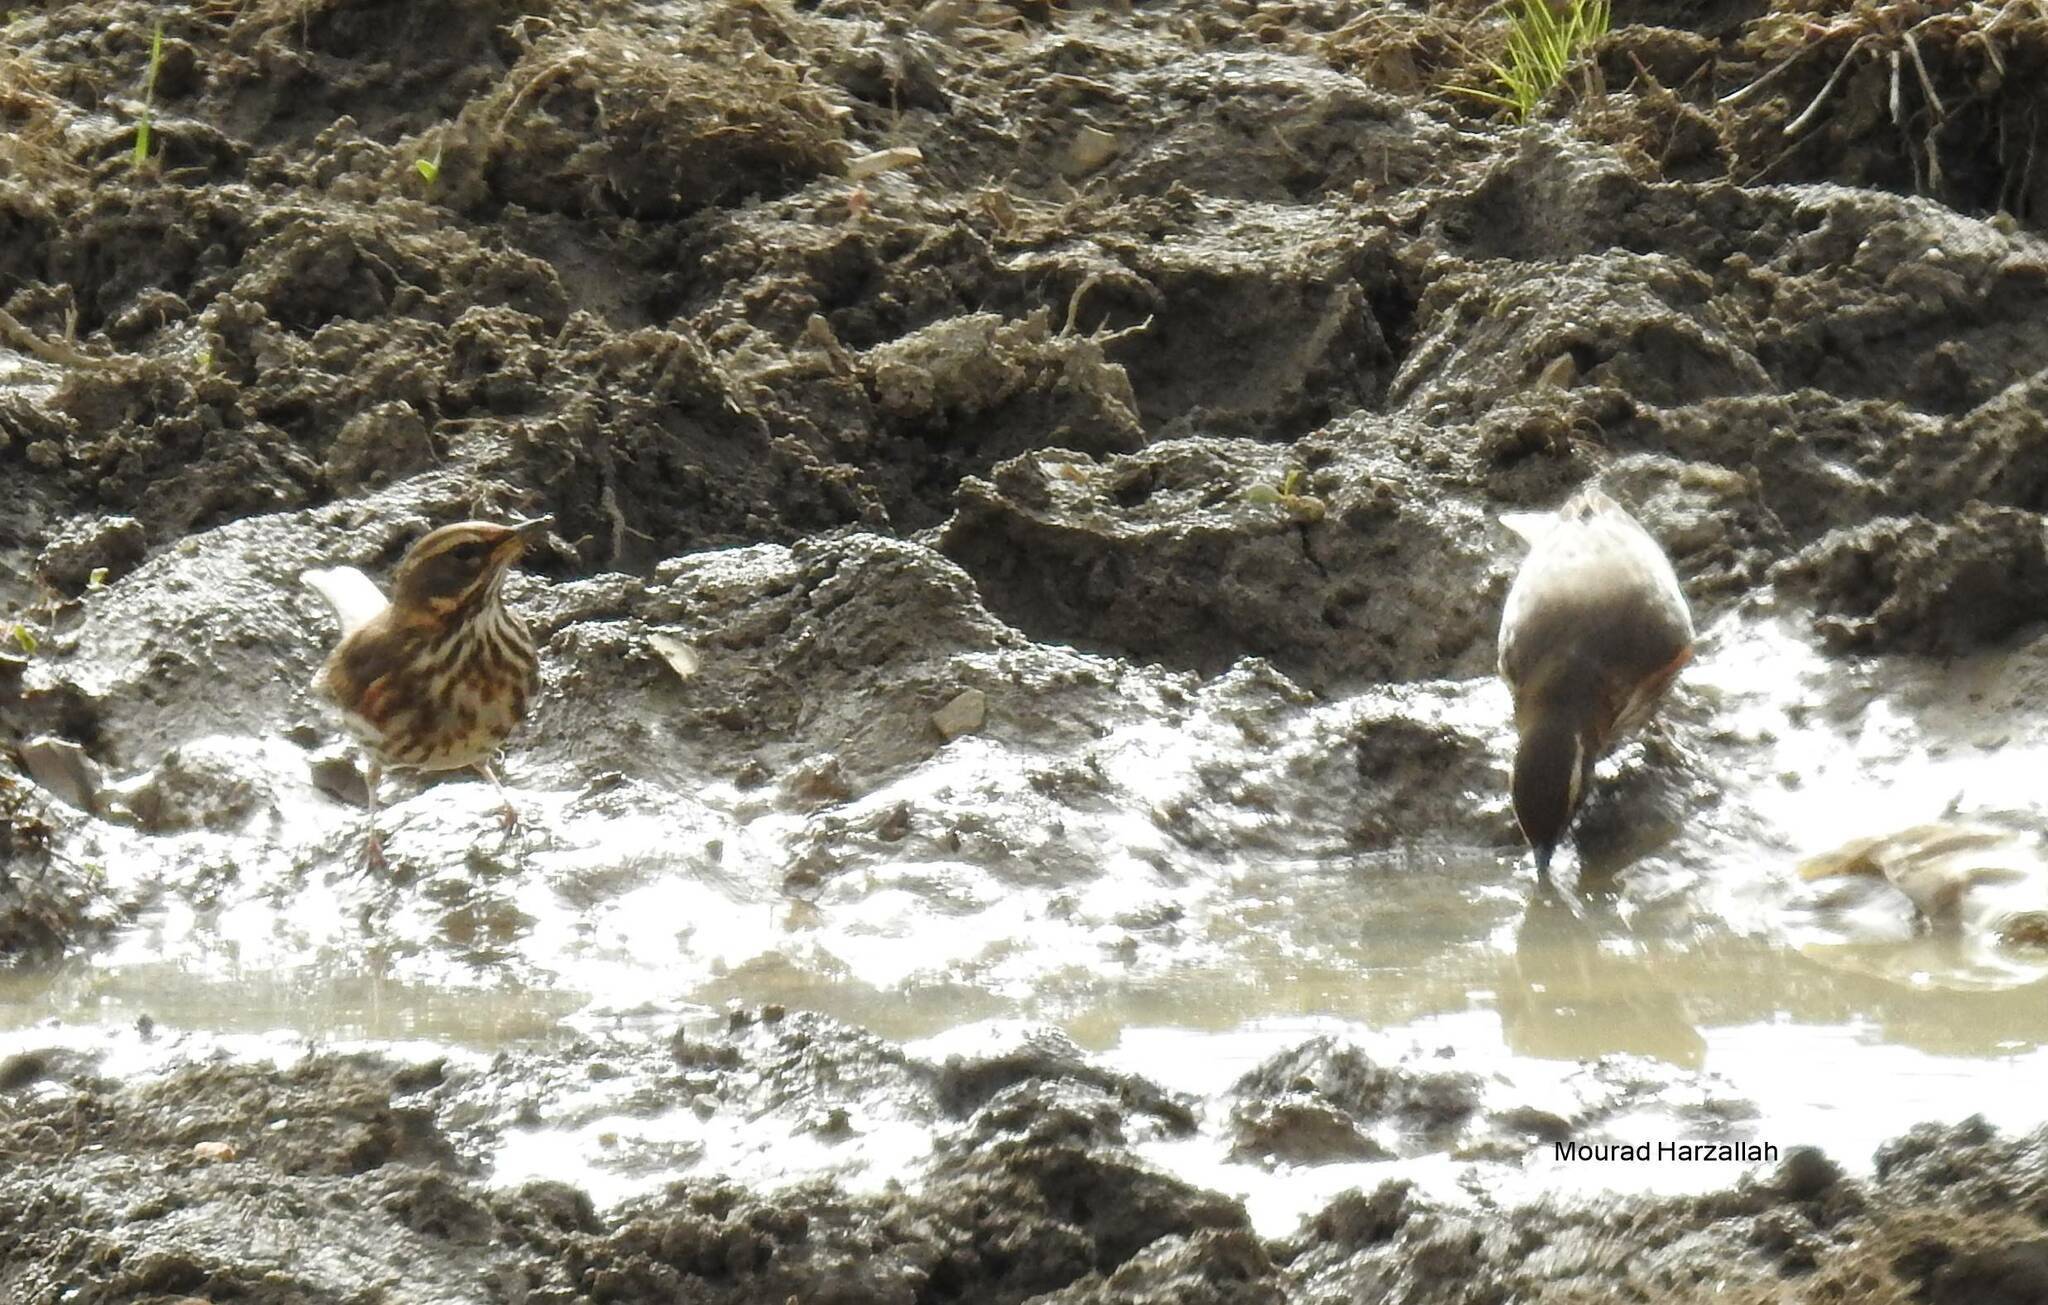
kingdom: Animalia
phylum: Chordata
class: Aves
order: Passeriformes
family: Turdidae
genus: Turdus
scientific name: Turdus iliacus
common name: Redwing
